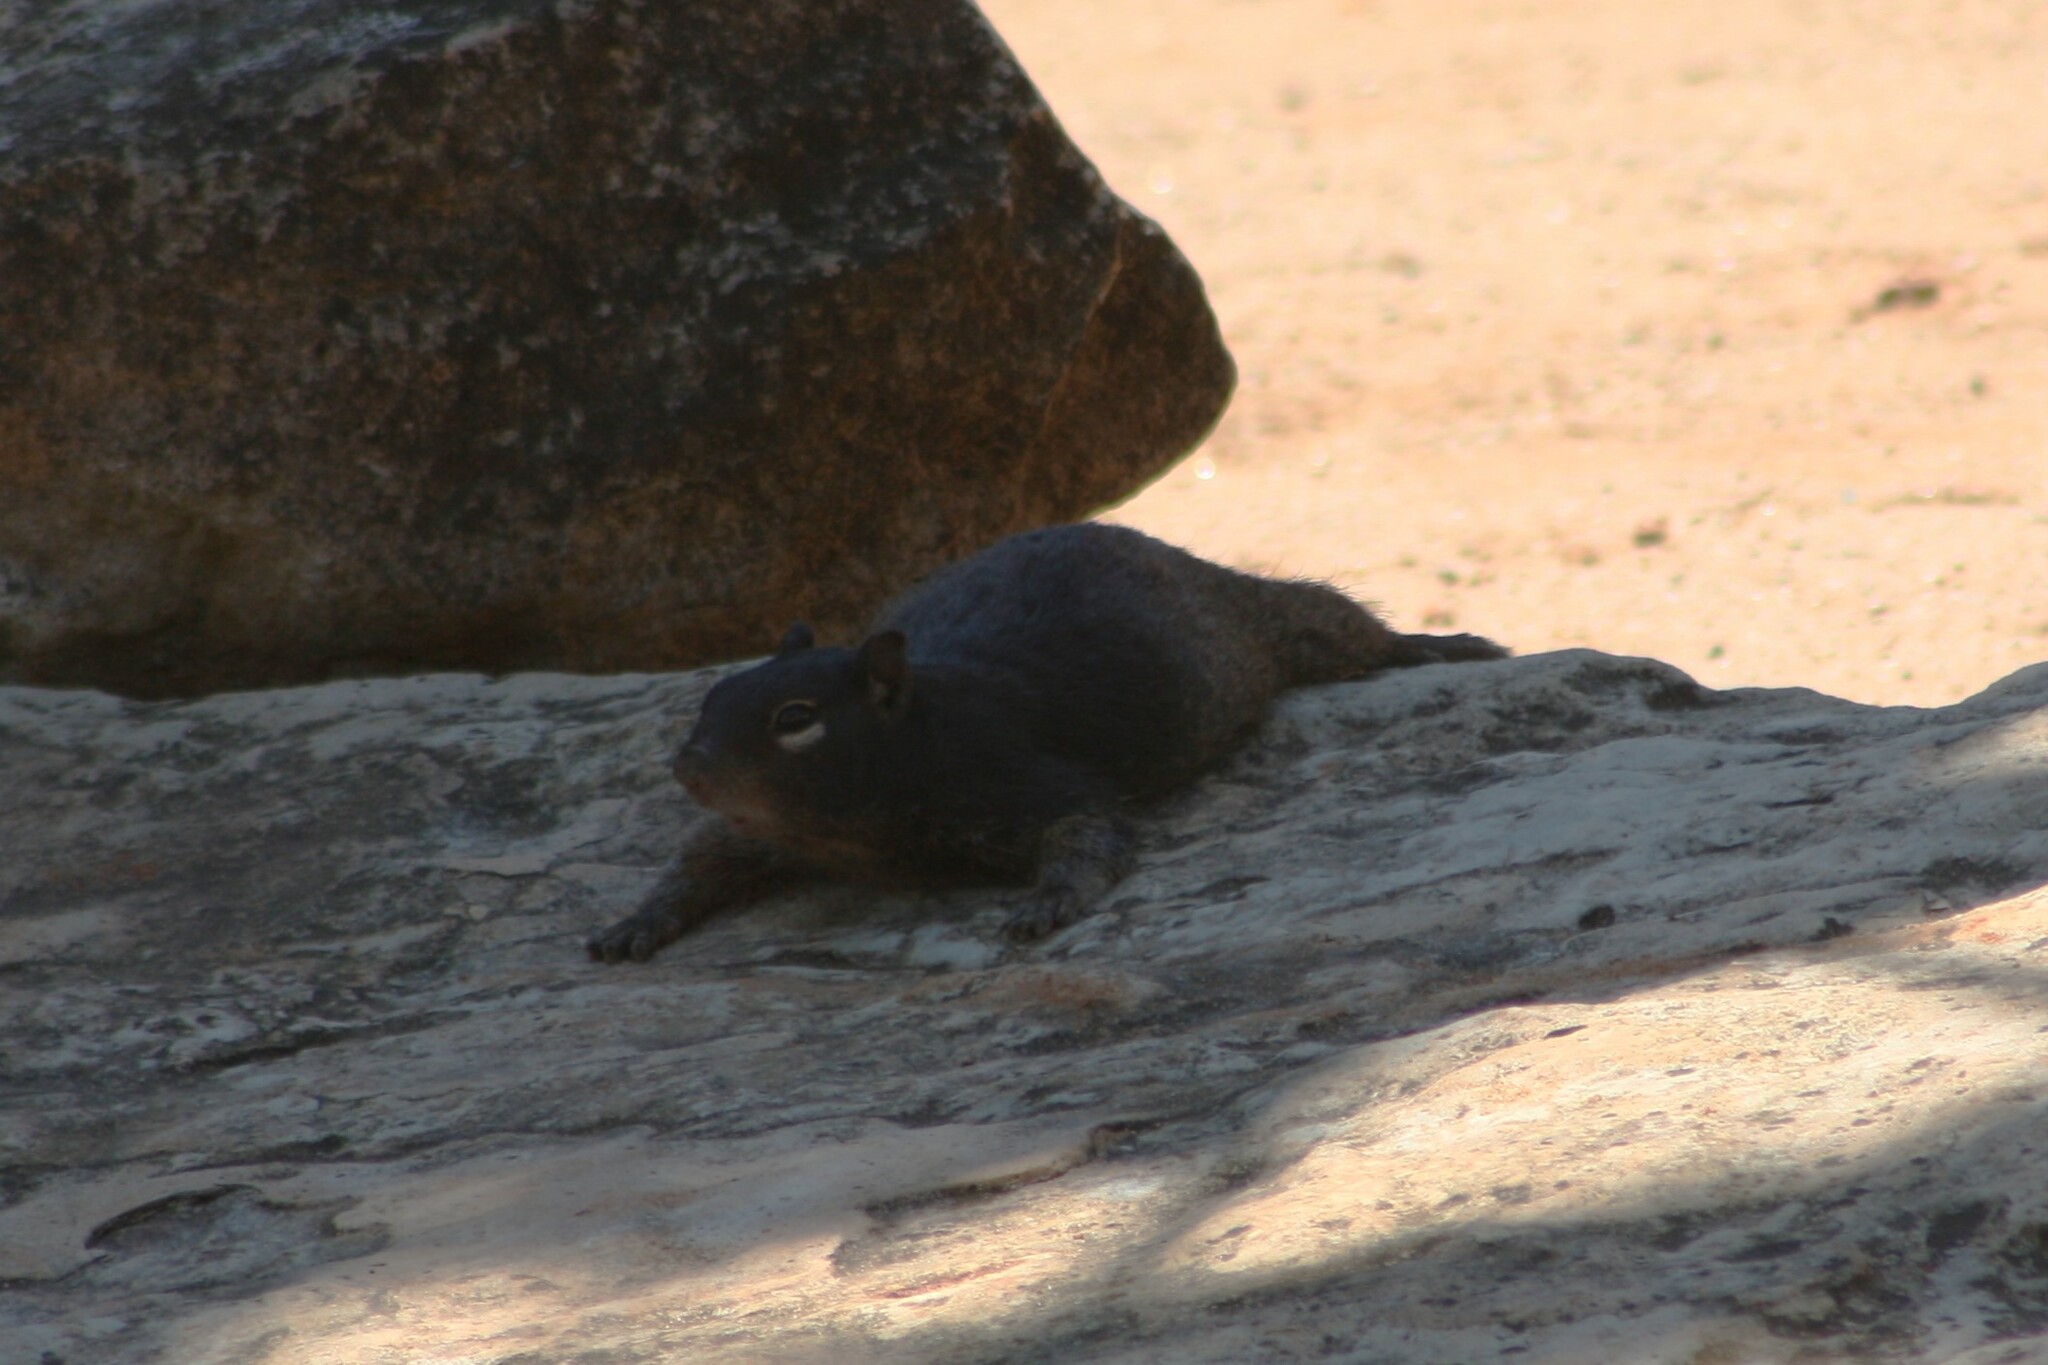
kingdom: Animalia
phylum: Chordata
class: Mammalia
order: Rodentia
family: Sciuridae
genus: Otospermophilus
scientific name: Otospermophilus variegatus
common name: Rock squirrel
